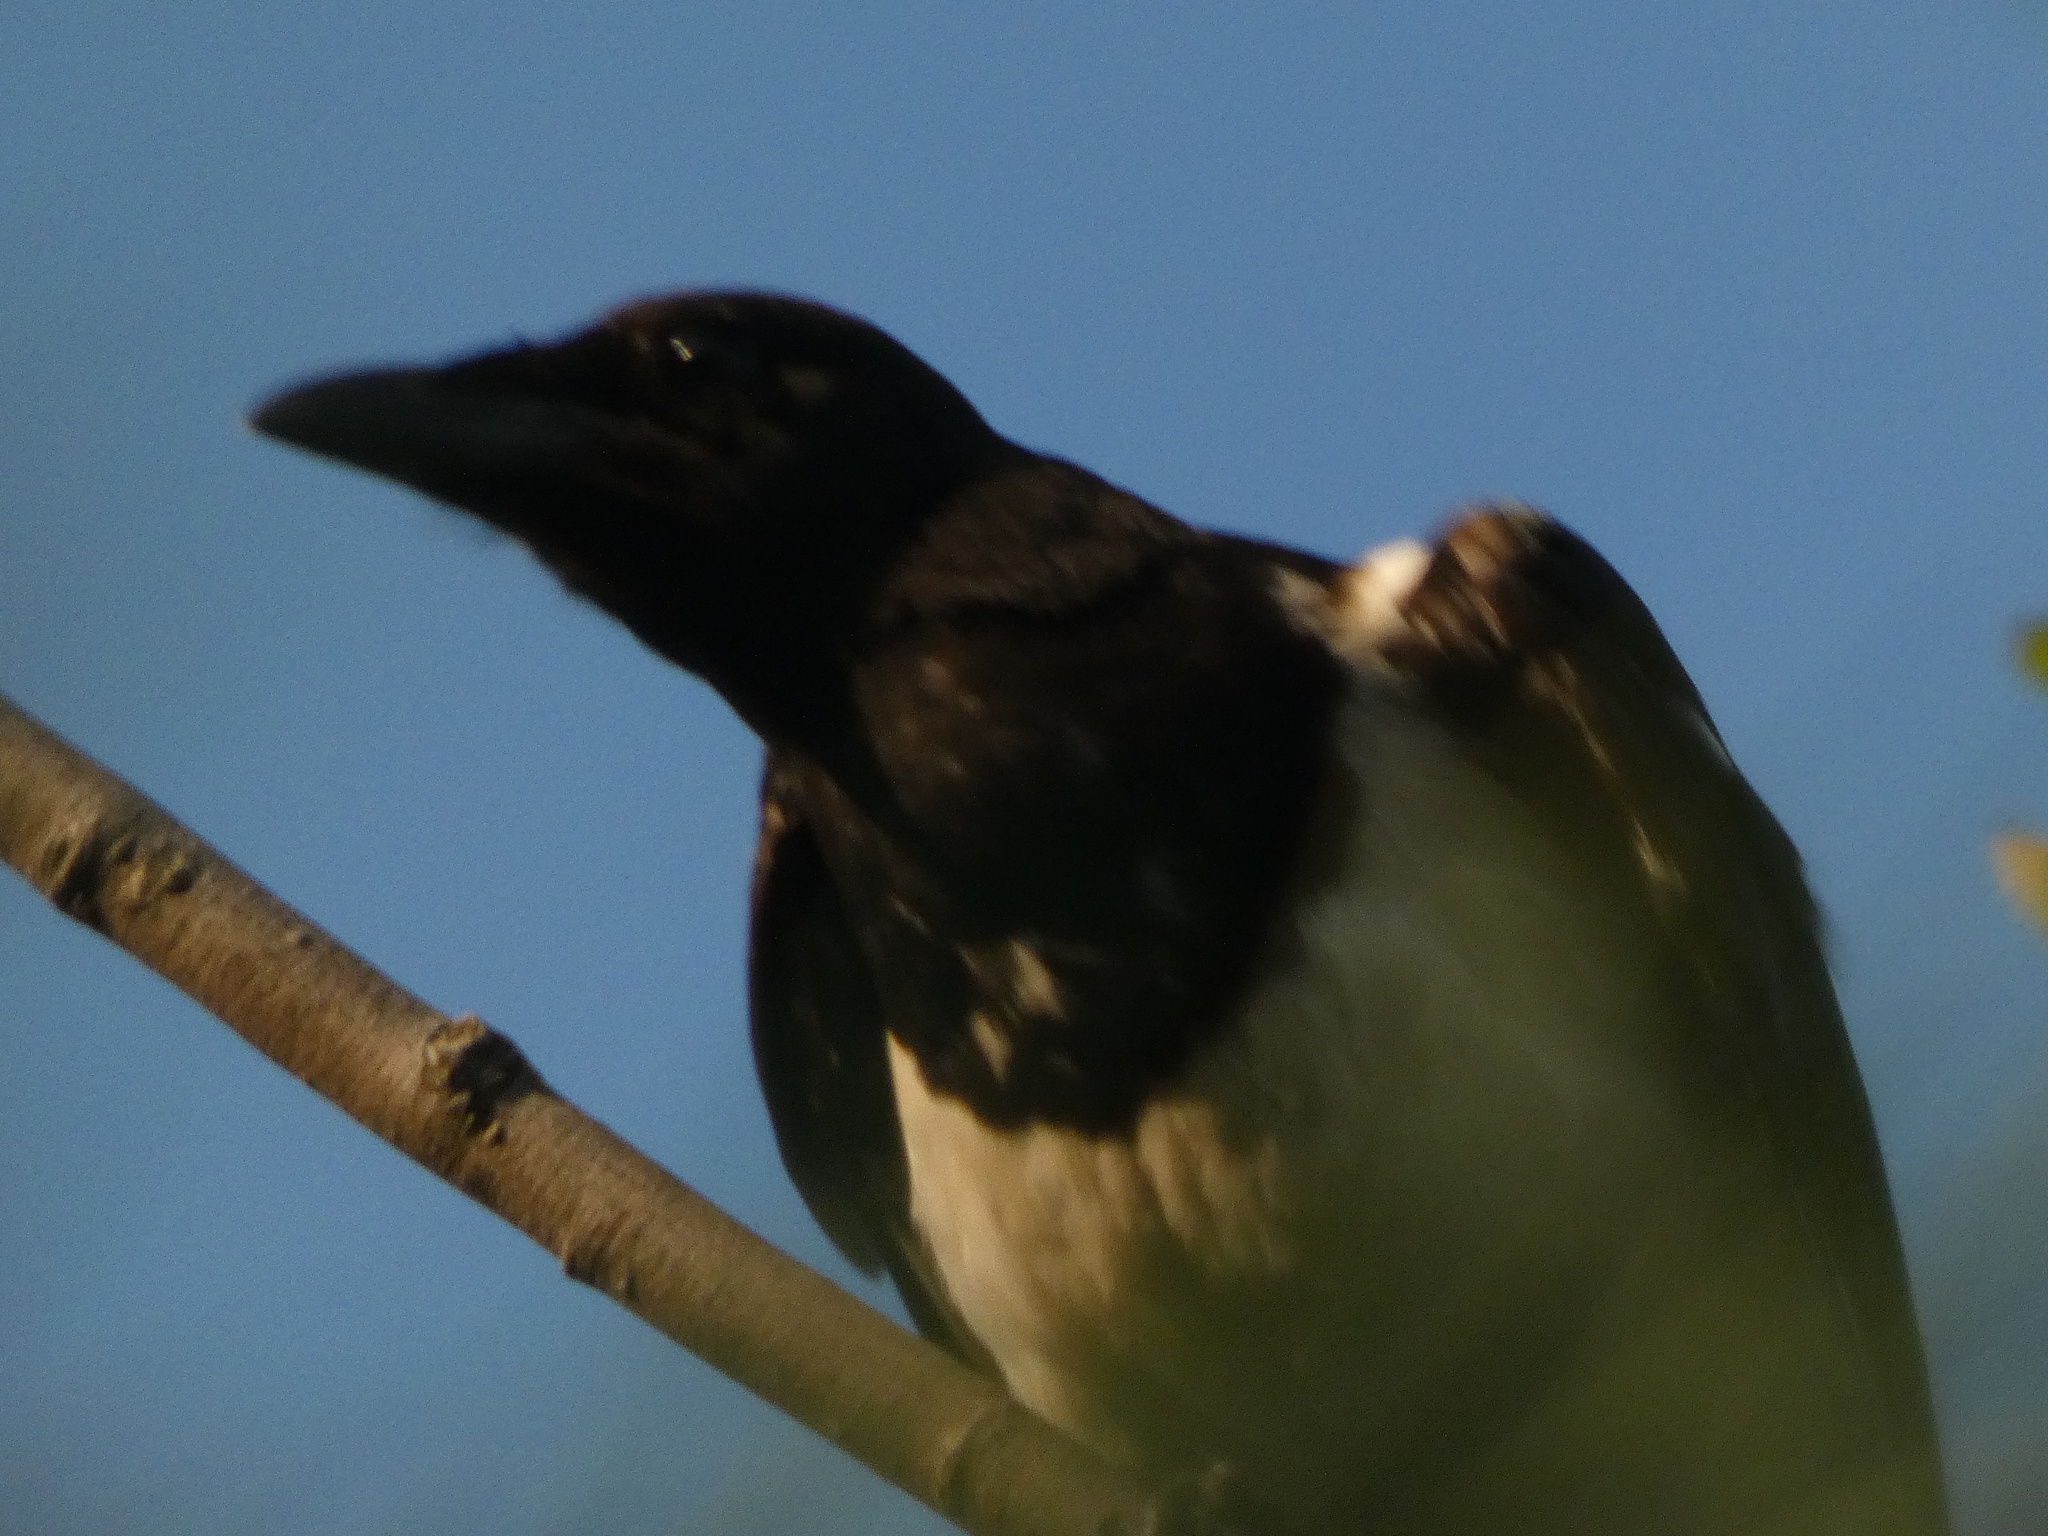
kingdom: Animalia
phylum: Chordata
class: Aves
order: Passeriformes
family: Corvidae
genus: Pica
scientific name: Pica pica
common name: Eurasian magpie
